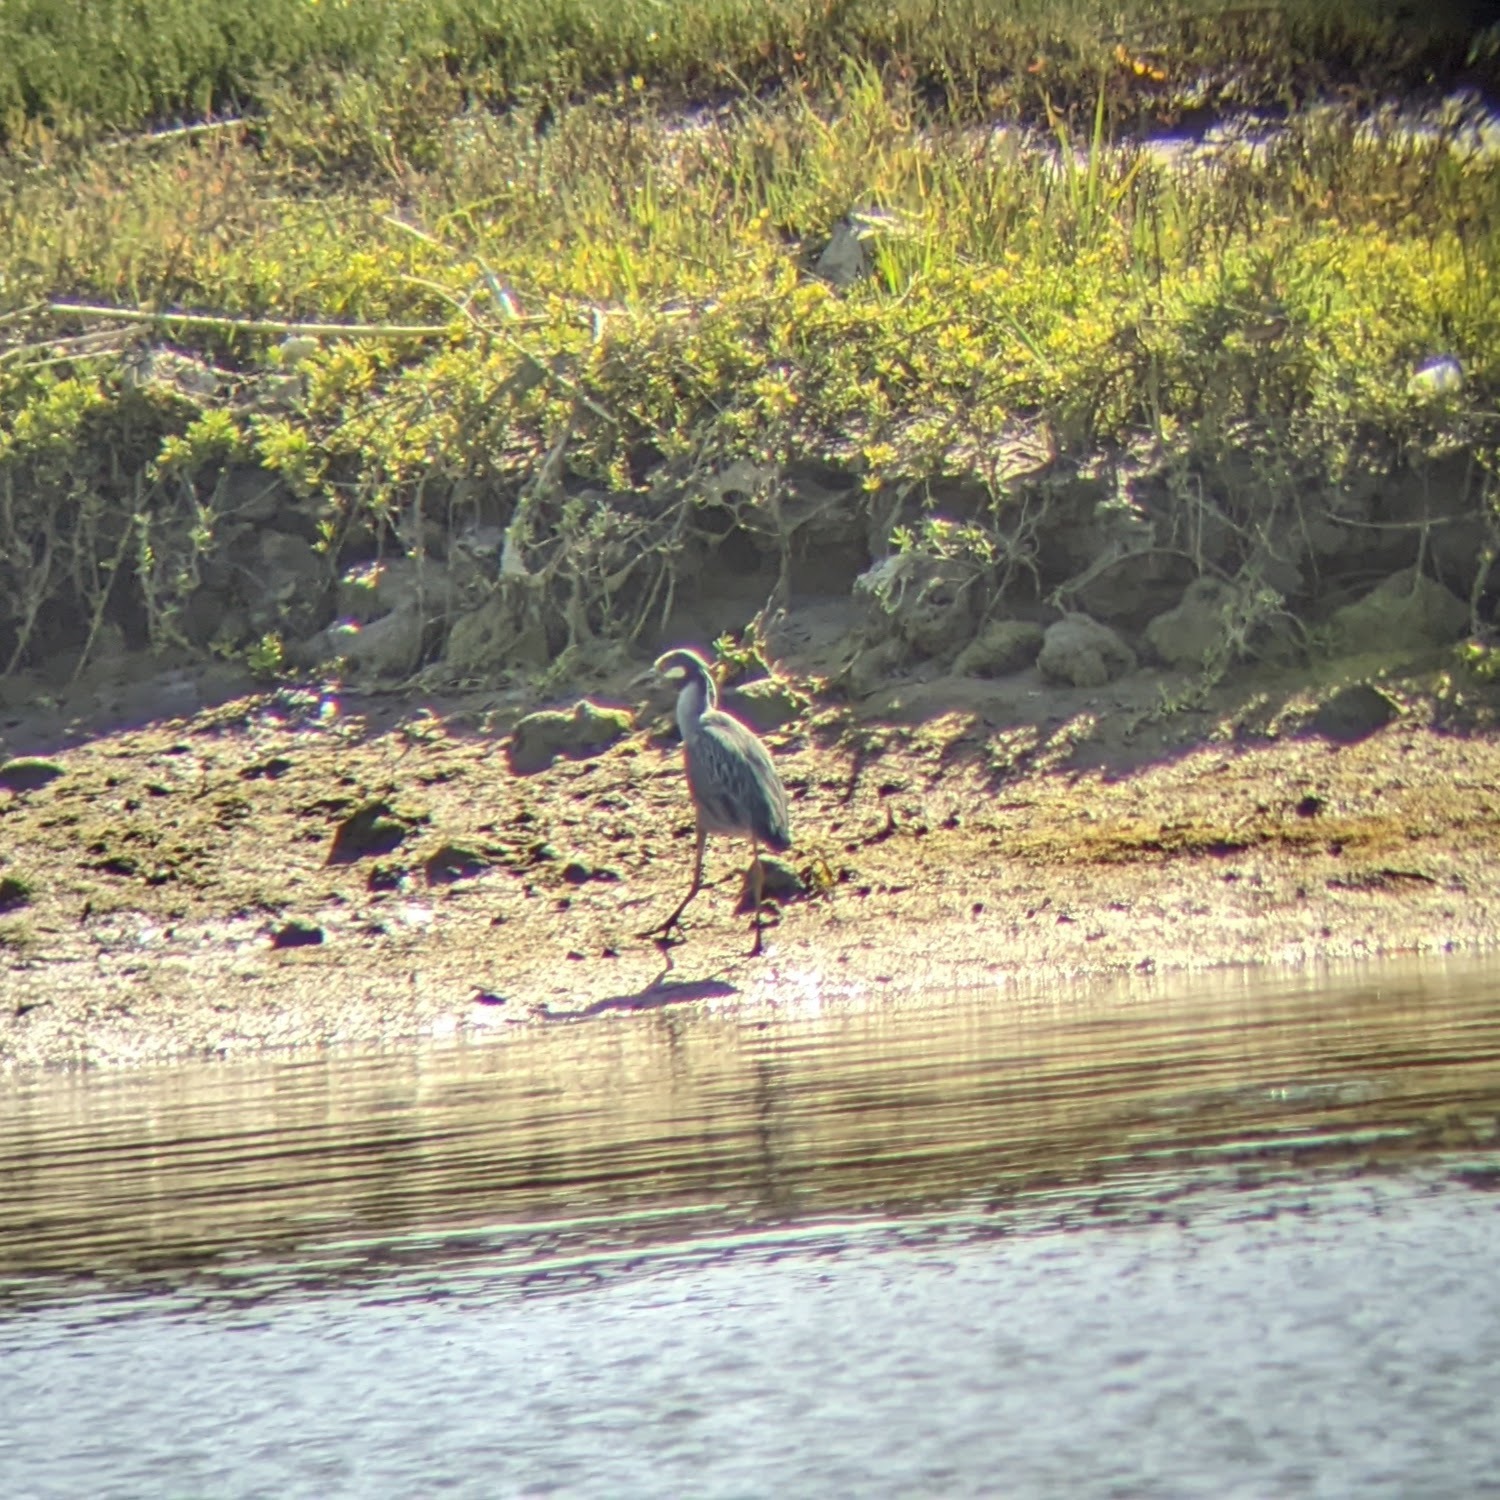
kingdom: Animalia
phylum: Chordata
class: Aves
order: Pelecaniformes
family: Ardeidae
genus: Nyctanassa
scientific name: Nyctanassa violacea
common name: Yellow-crowned night heron
